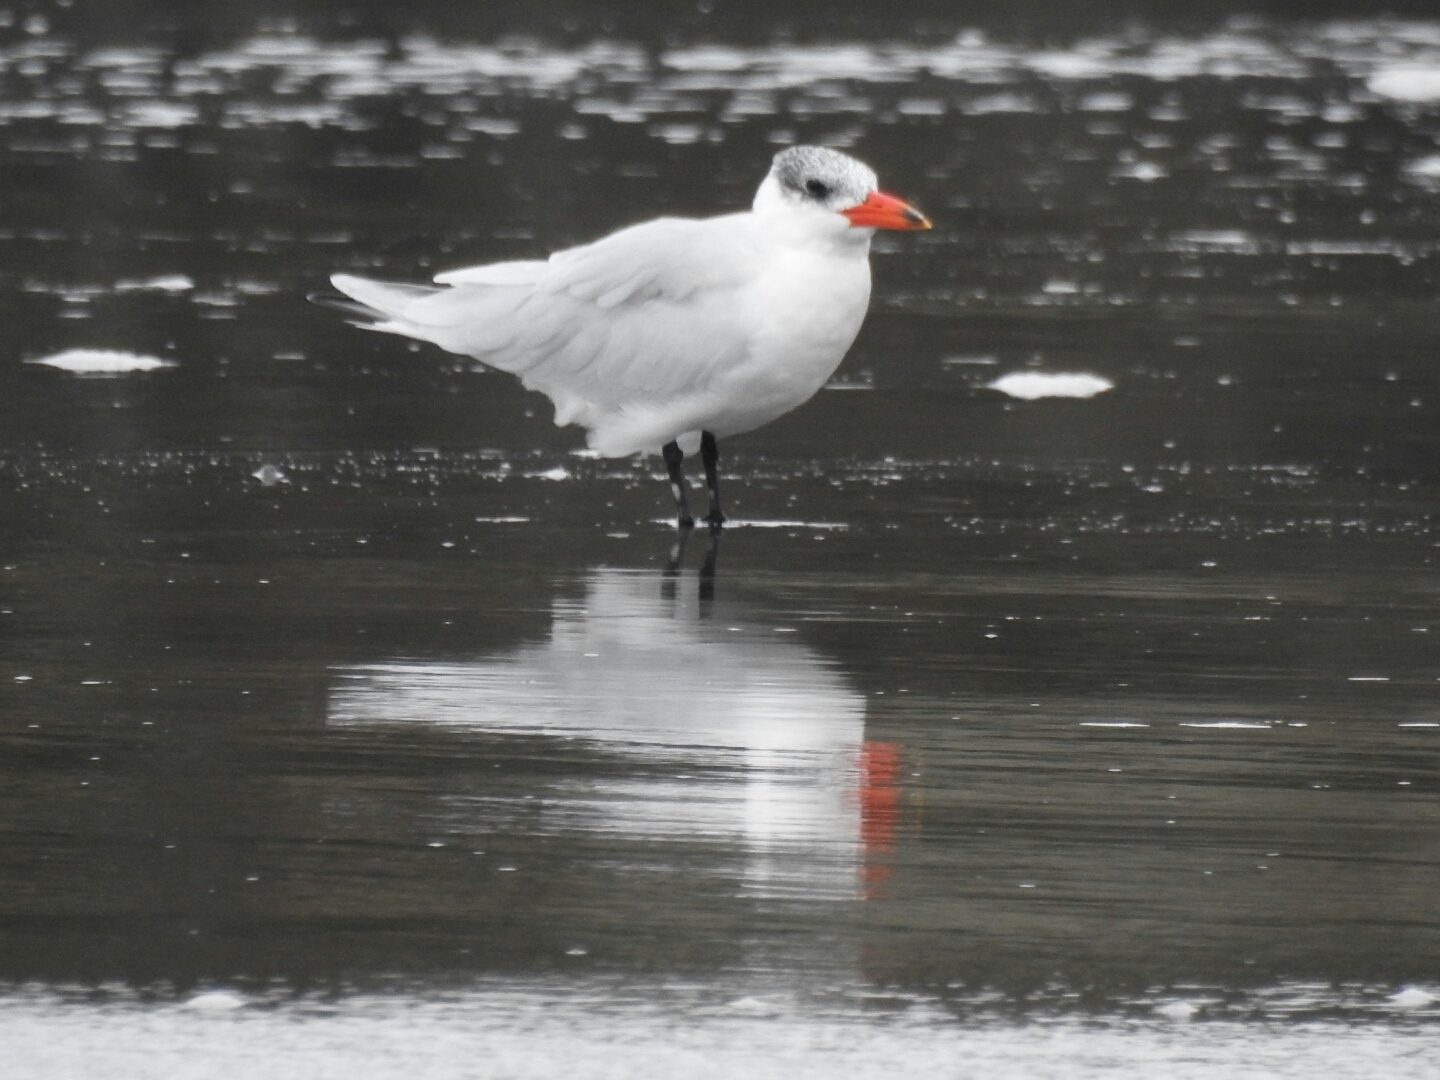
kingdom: Animalia
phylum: Chordata
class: Aves
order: Charadriiformes
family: Laridae
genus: Hydroprogne
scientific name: Hydroprogne caspia
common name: Caspian tern
